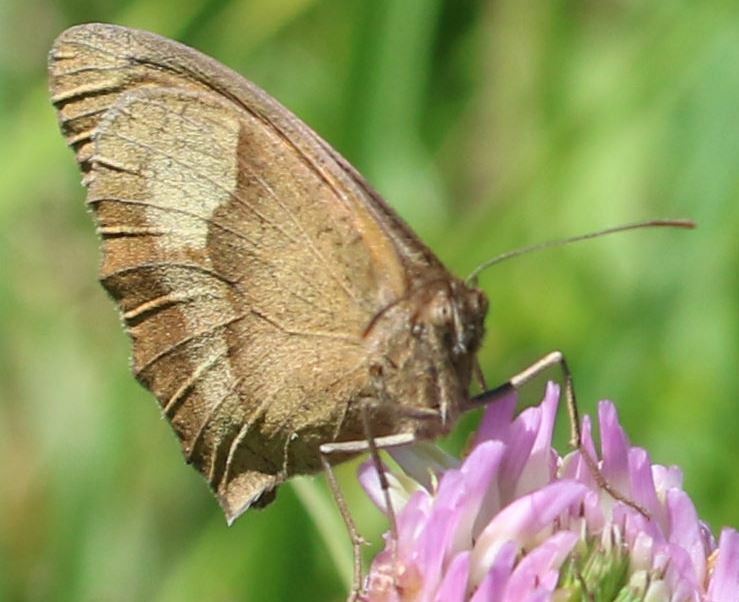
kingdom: Animalia
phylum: Arthropoda
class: Insecta
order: Lepidoptera
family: Nymphalidae
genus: Maniola
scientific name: Maniola jurtina
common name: Meadow brown
